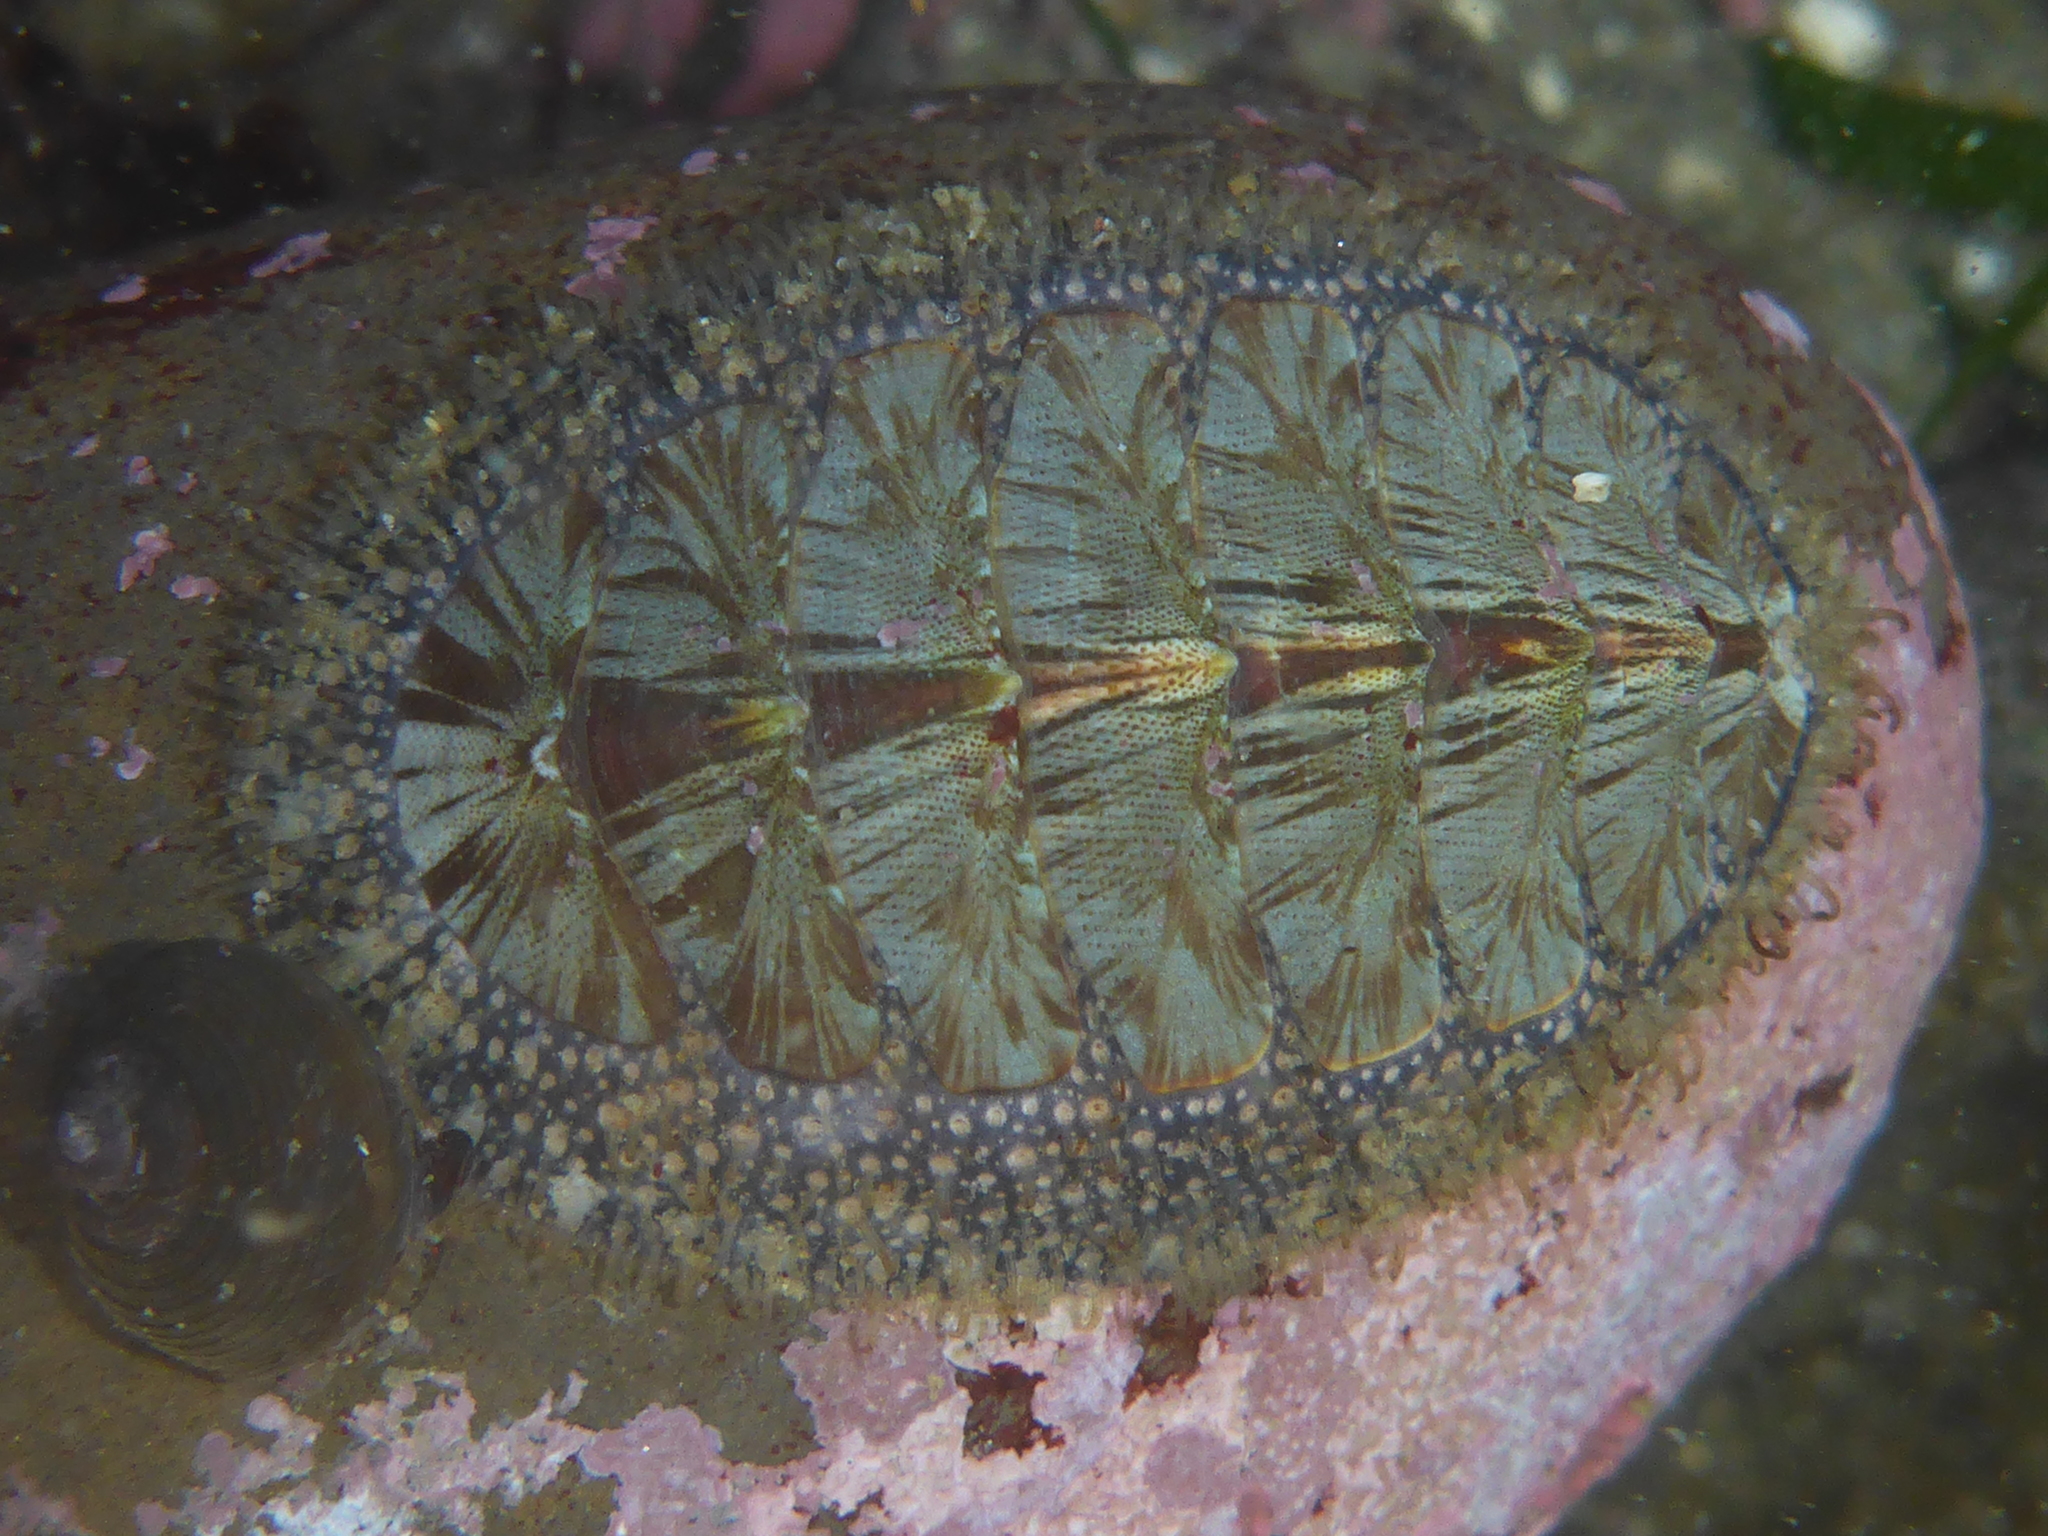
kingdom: Animalia
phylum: Mollusca
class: Polyplacophora
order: Chitonida
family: Mopaliidae
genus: Mopalia
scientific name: Mopalia lignosa
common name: Woody chiton
